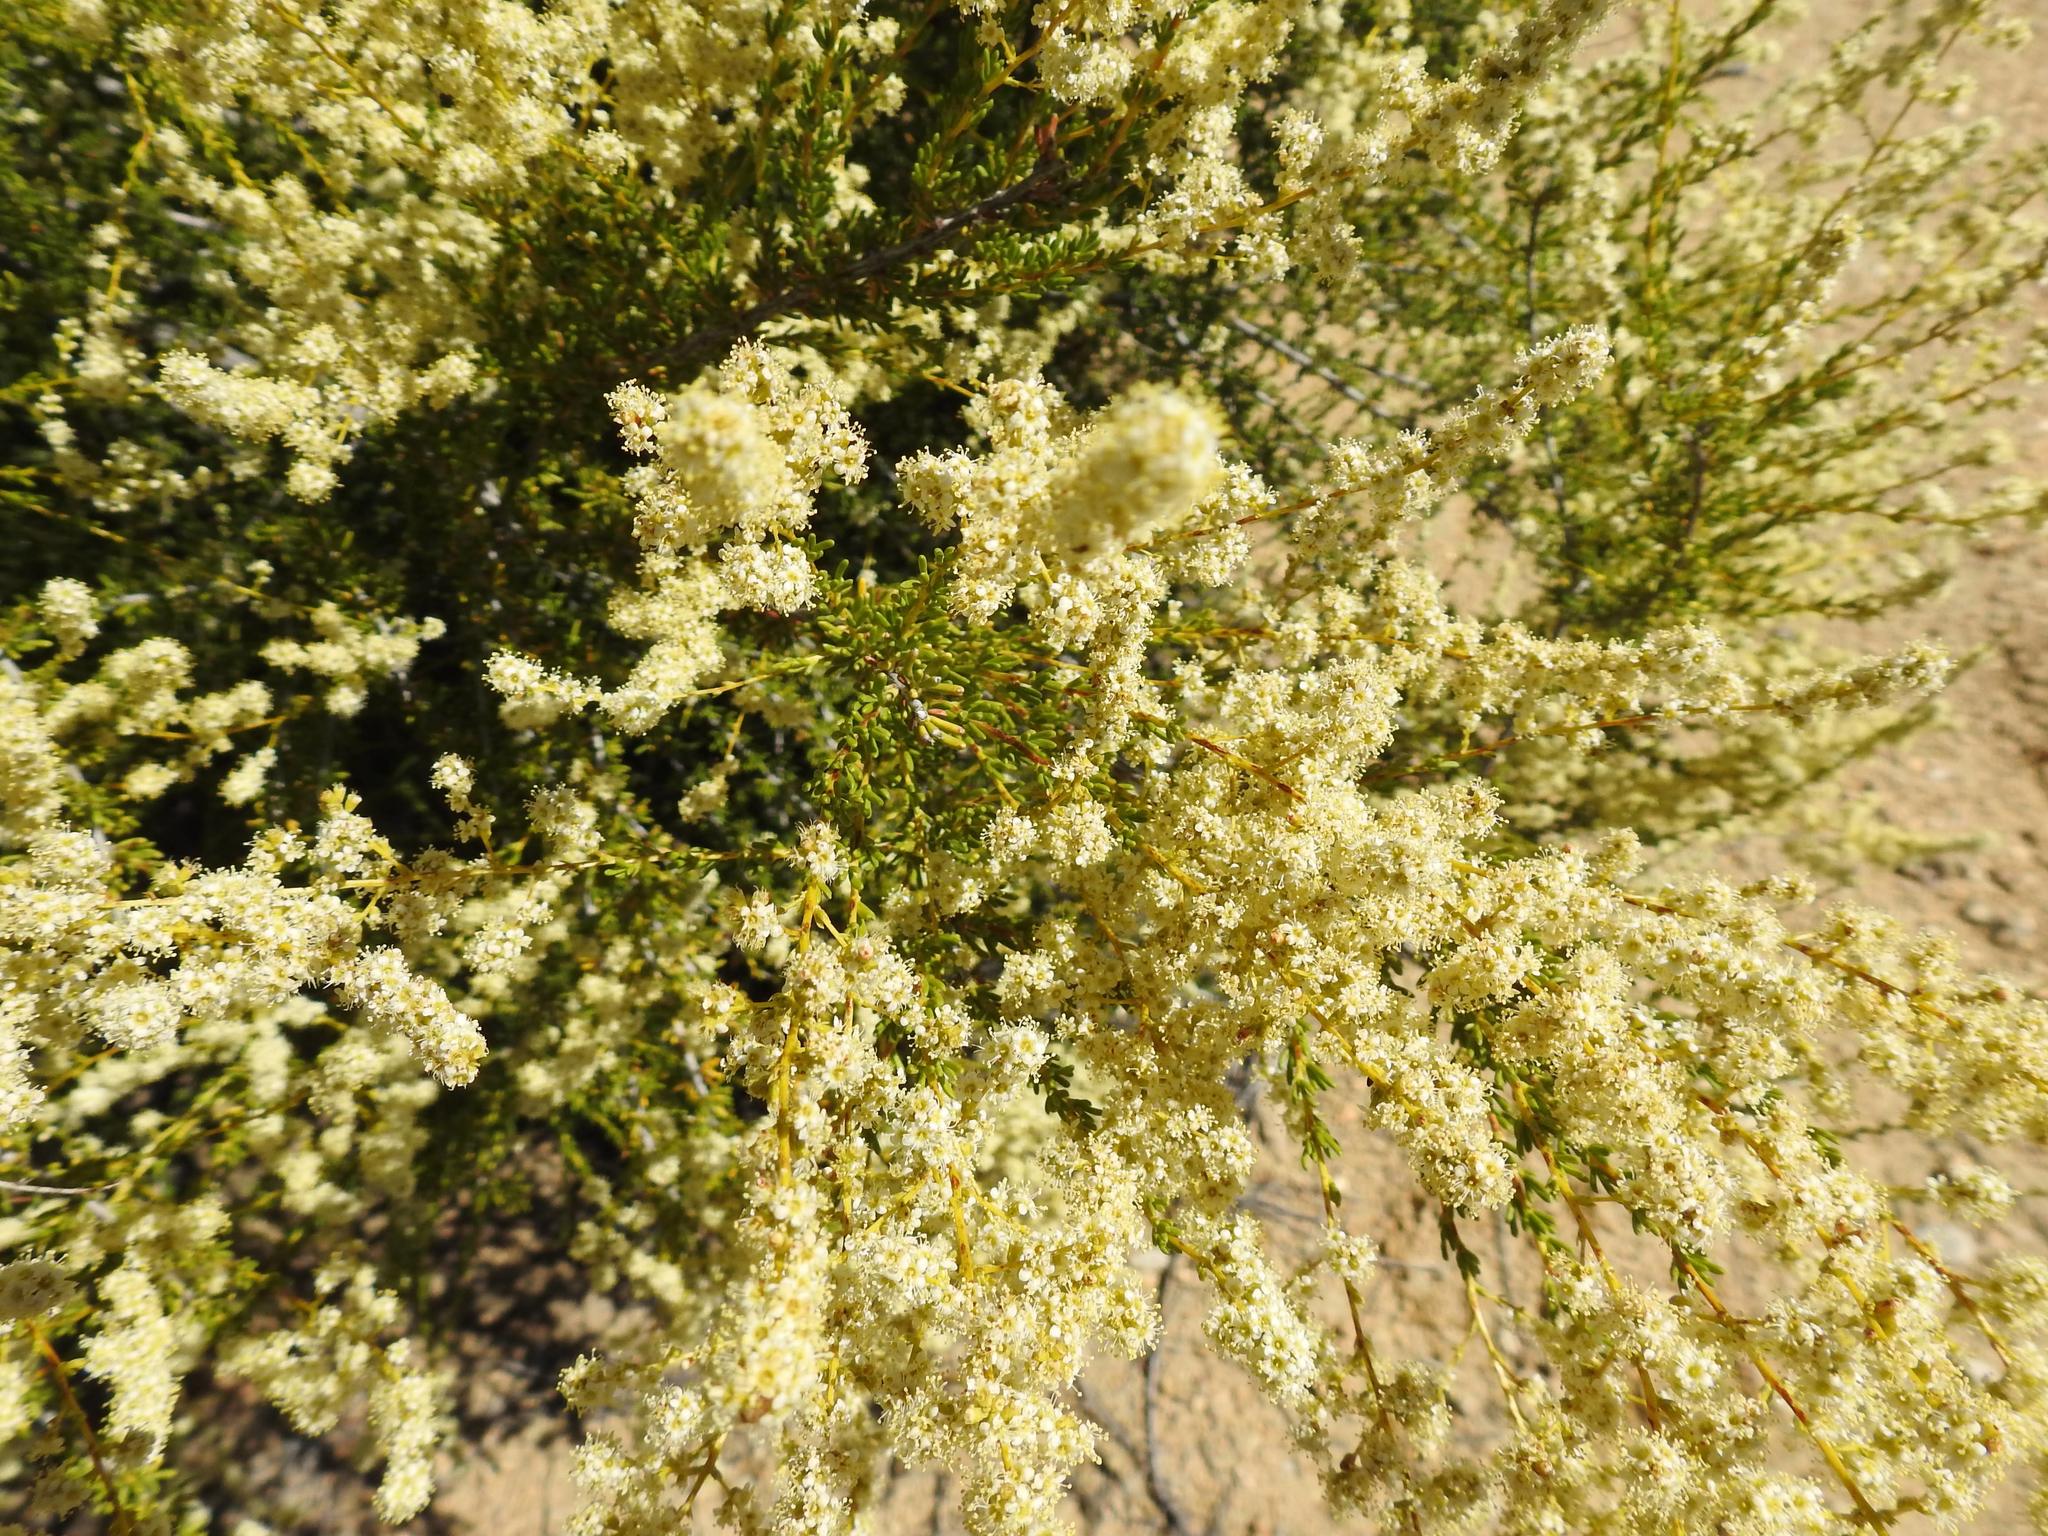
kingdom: Plantae
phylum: Tracheophyta
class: Magnoliopsida
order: Rosales
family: Rosaceae
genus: Adenostoma
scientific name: Adenostoma fasciculatum
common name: Chamise
